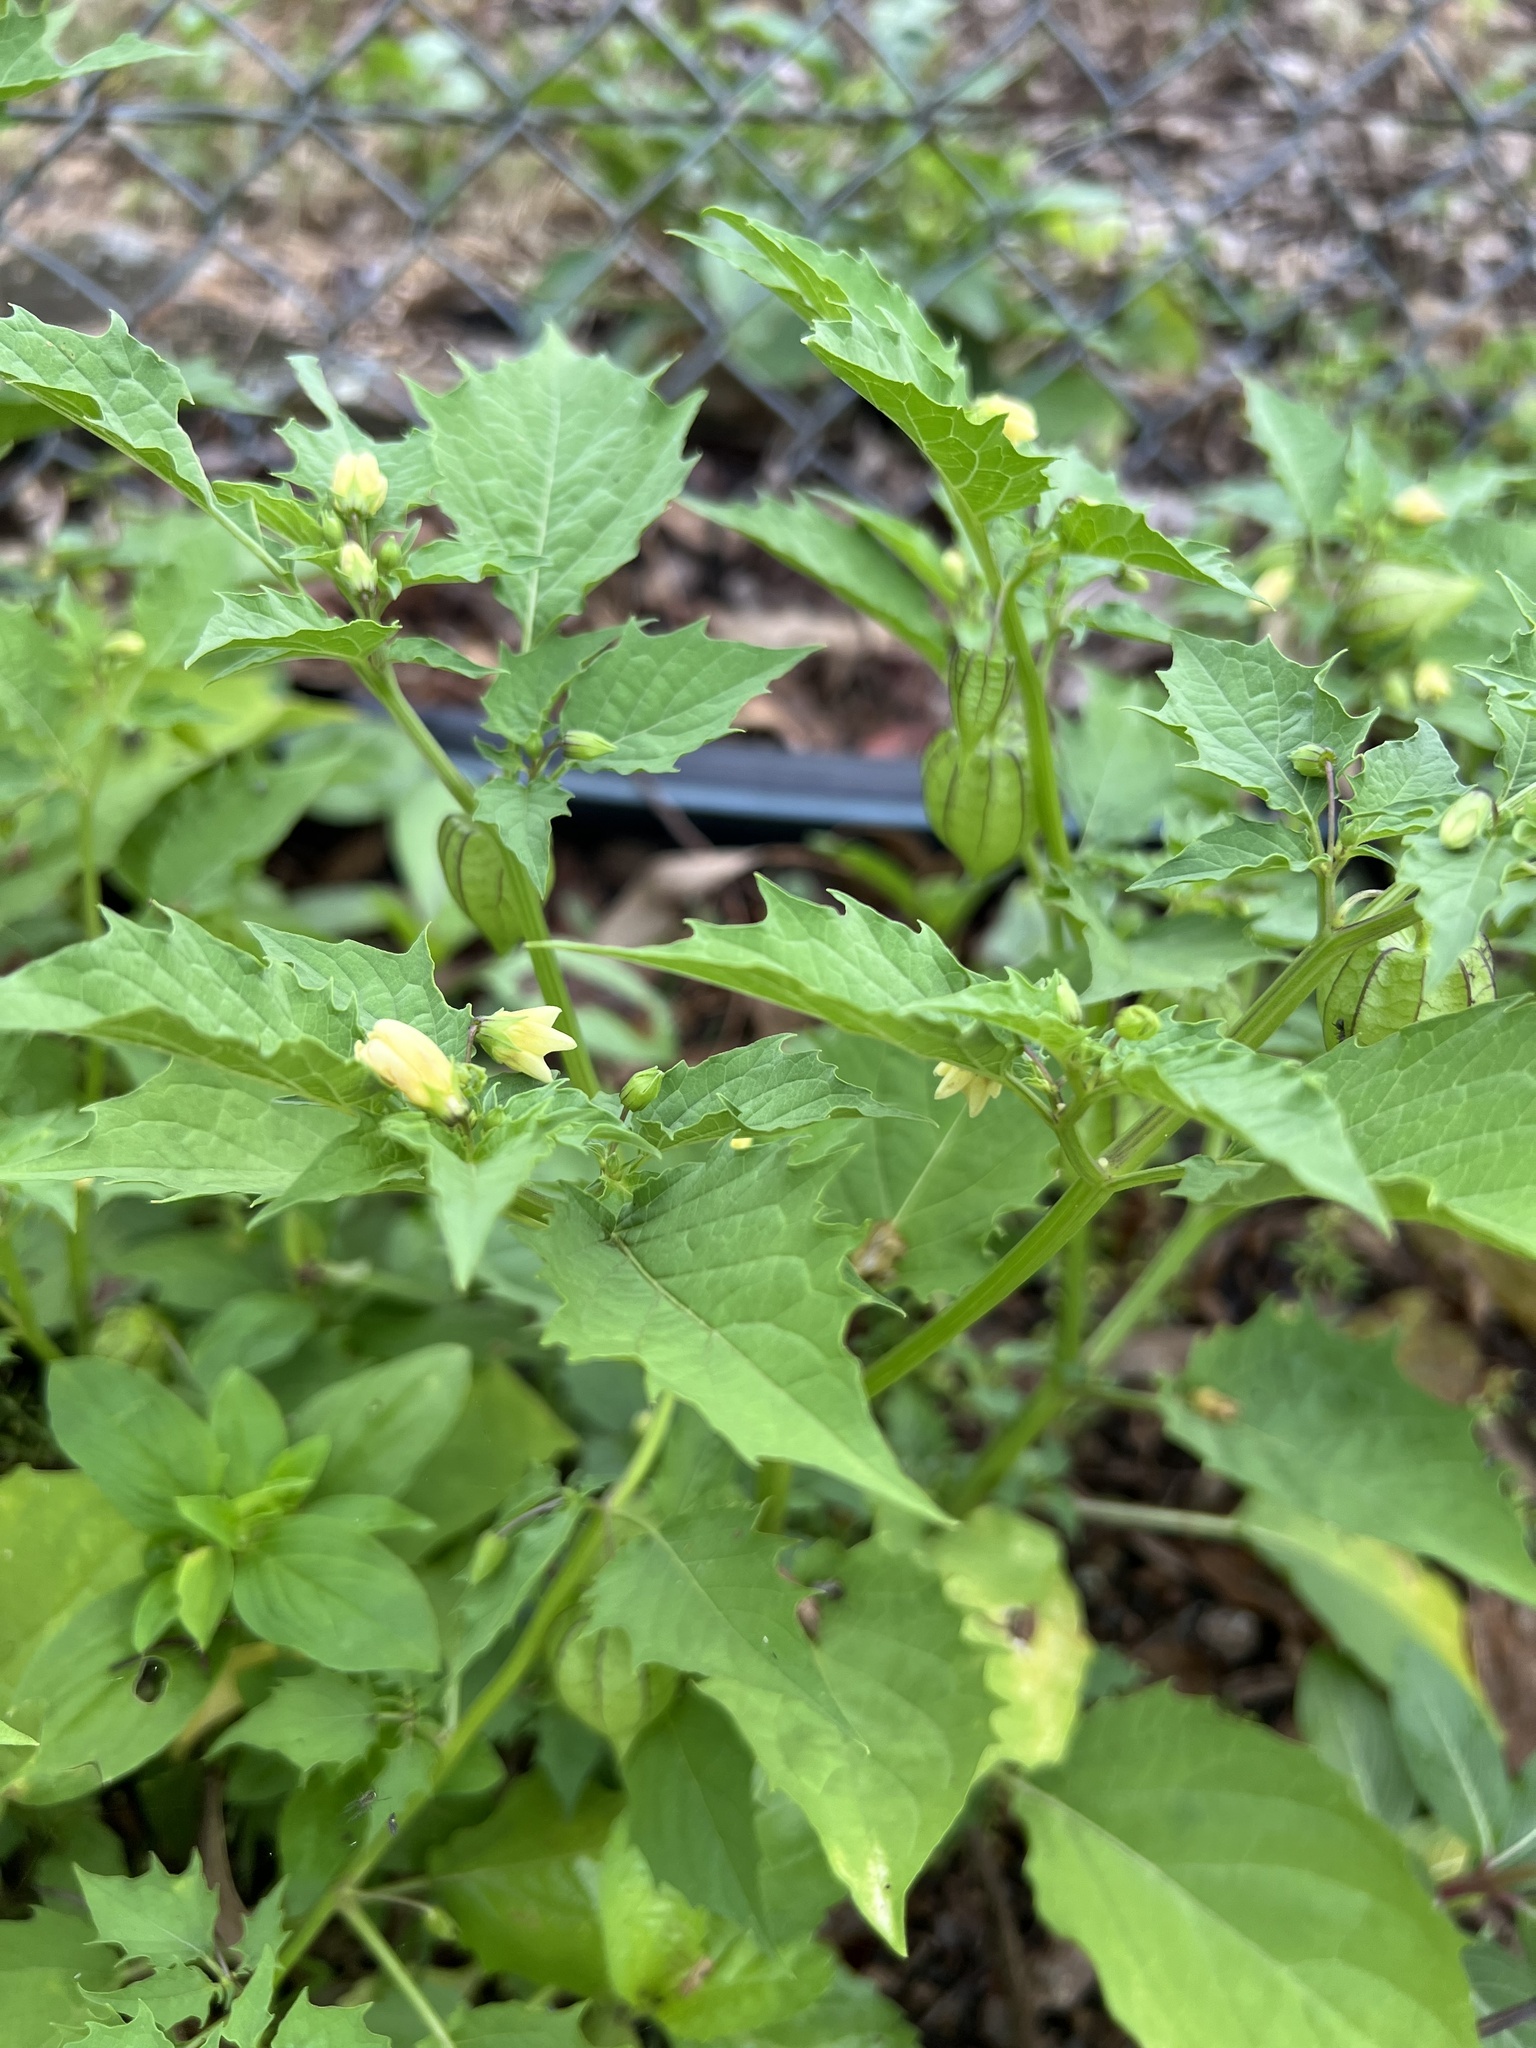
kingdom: Plantae
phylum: Tracheophyta
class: Magnoliopsida
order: Solanales
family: Solanaceae
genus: Physalis
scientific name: Physalis angulata
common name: Angular winter-cherry
